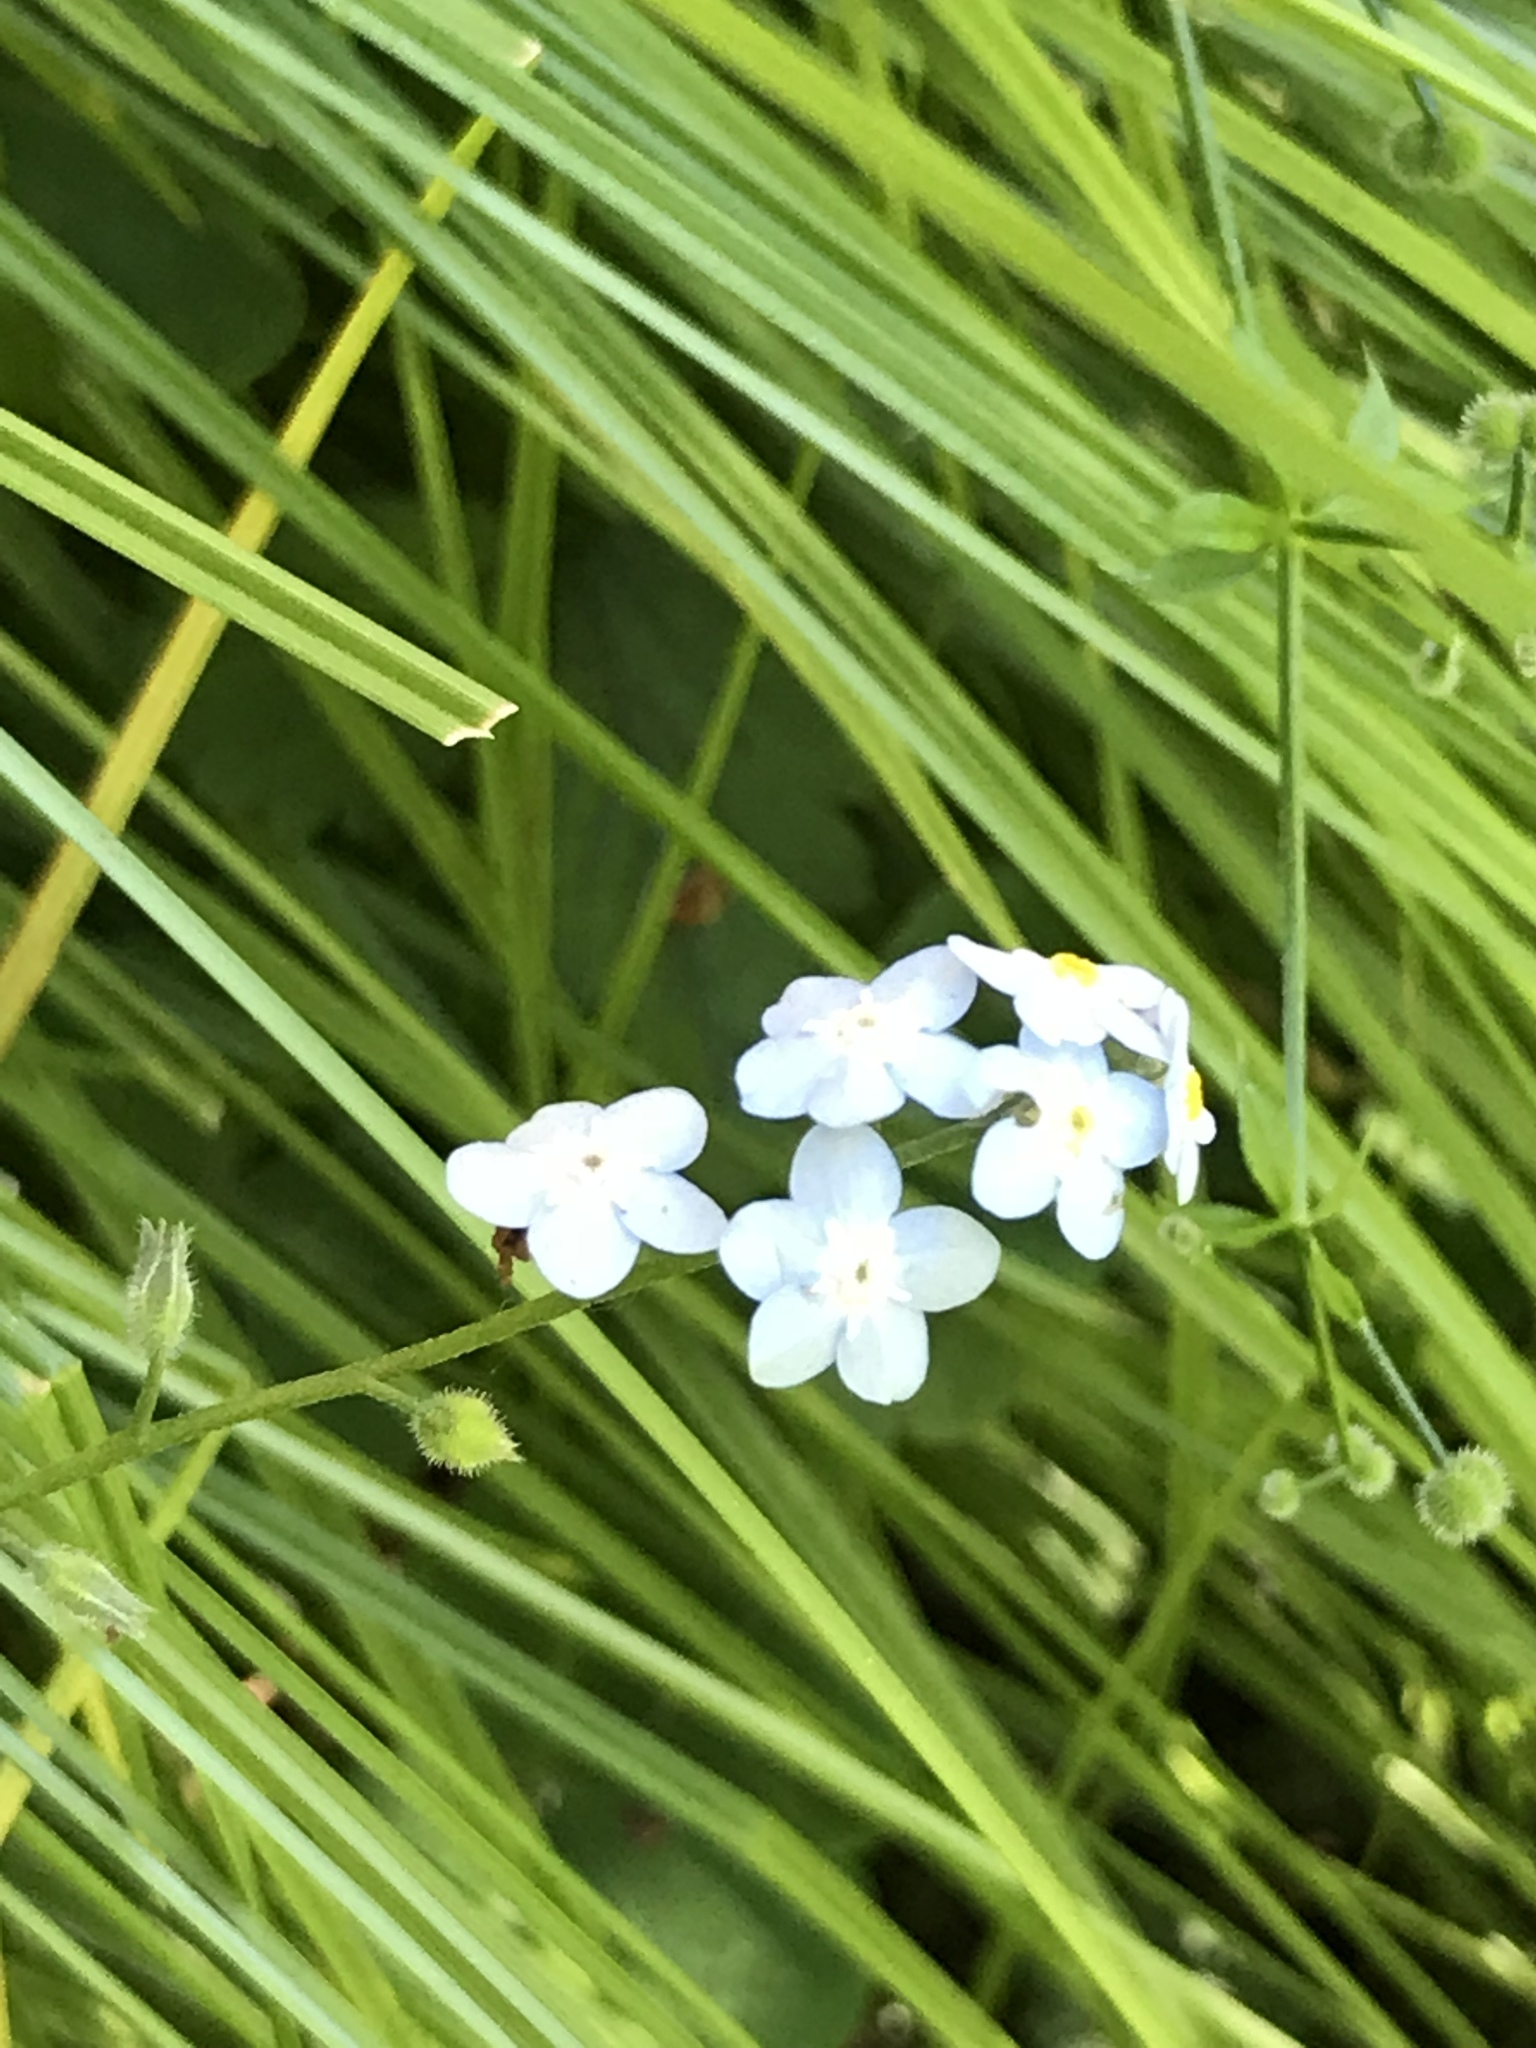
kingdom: Plantae
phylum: Tracheophyta
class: Magnoliopsida
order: Boraginales
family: Boraginaceae
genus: Myosotis
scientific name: Myosotis latifolia
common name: Broadleaf forget-me-not
